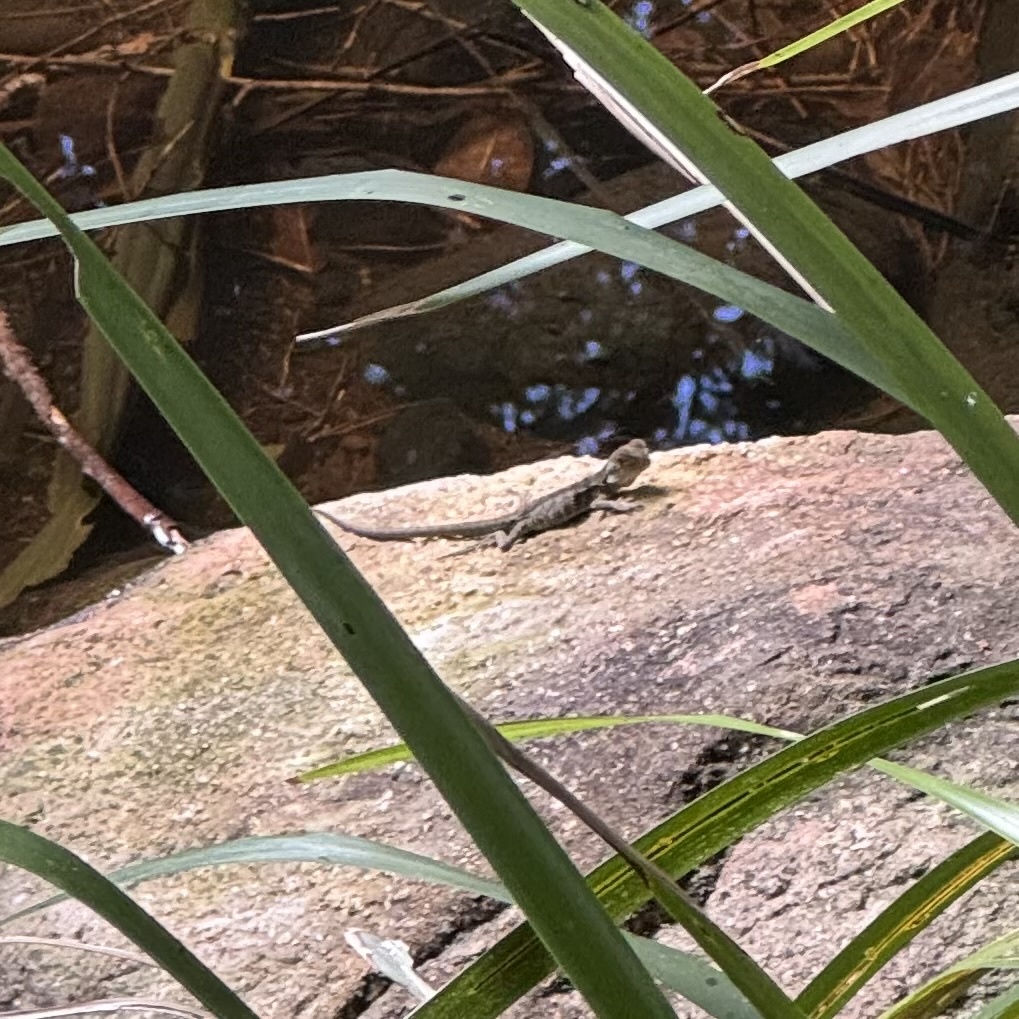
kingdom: Animalia
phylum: Chordata
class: Squamata
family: Agamidae
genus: Intellagama
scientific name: Intellagama lesueurii
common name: Eastern water dragon
